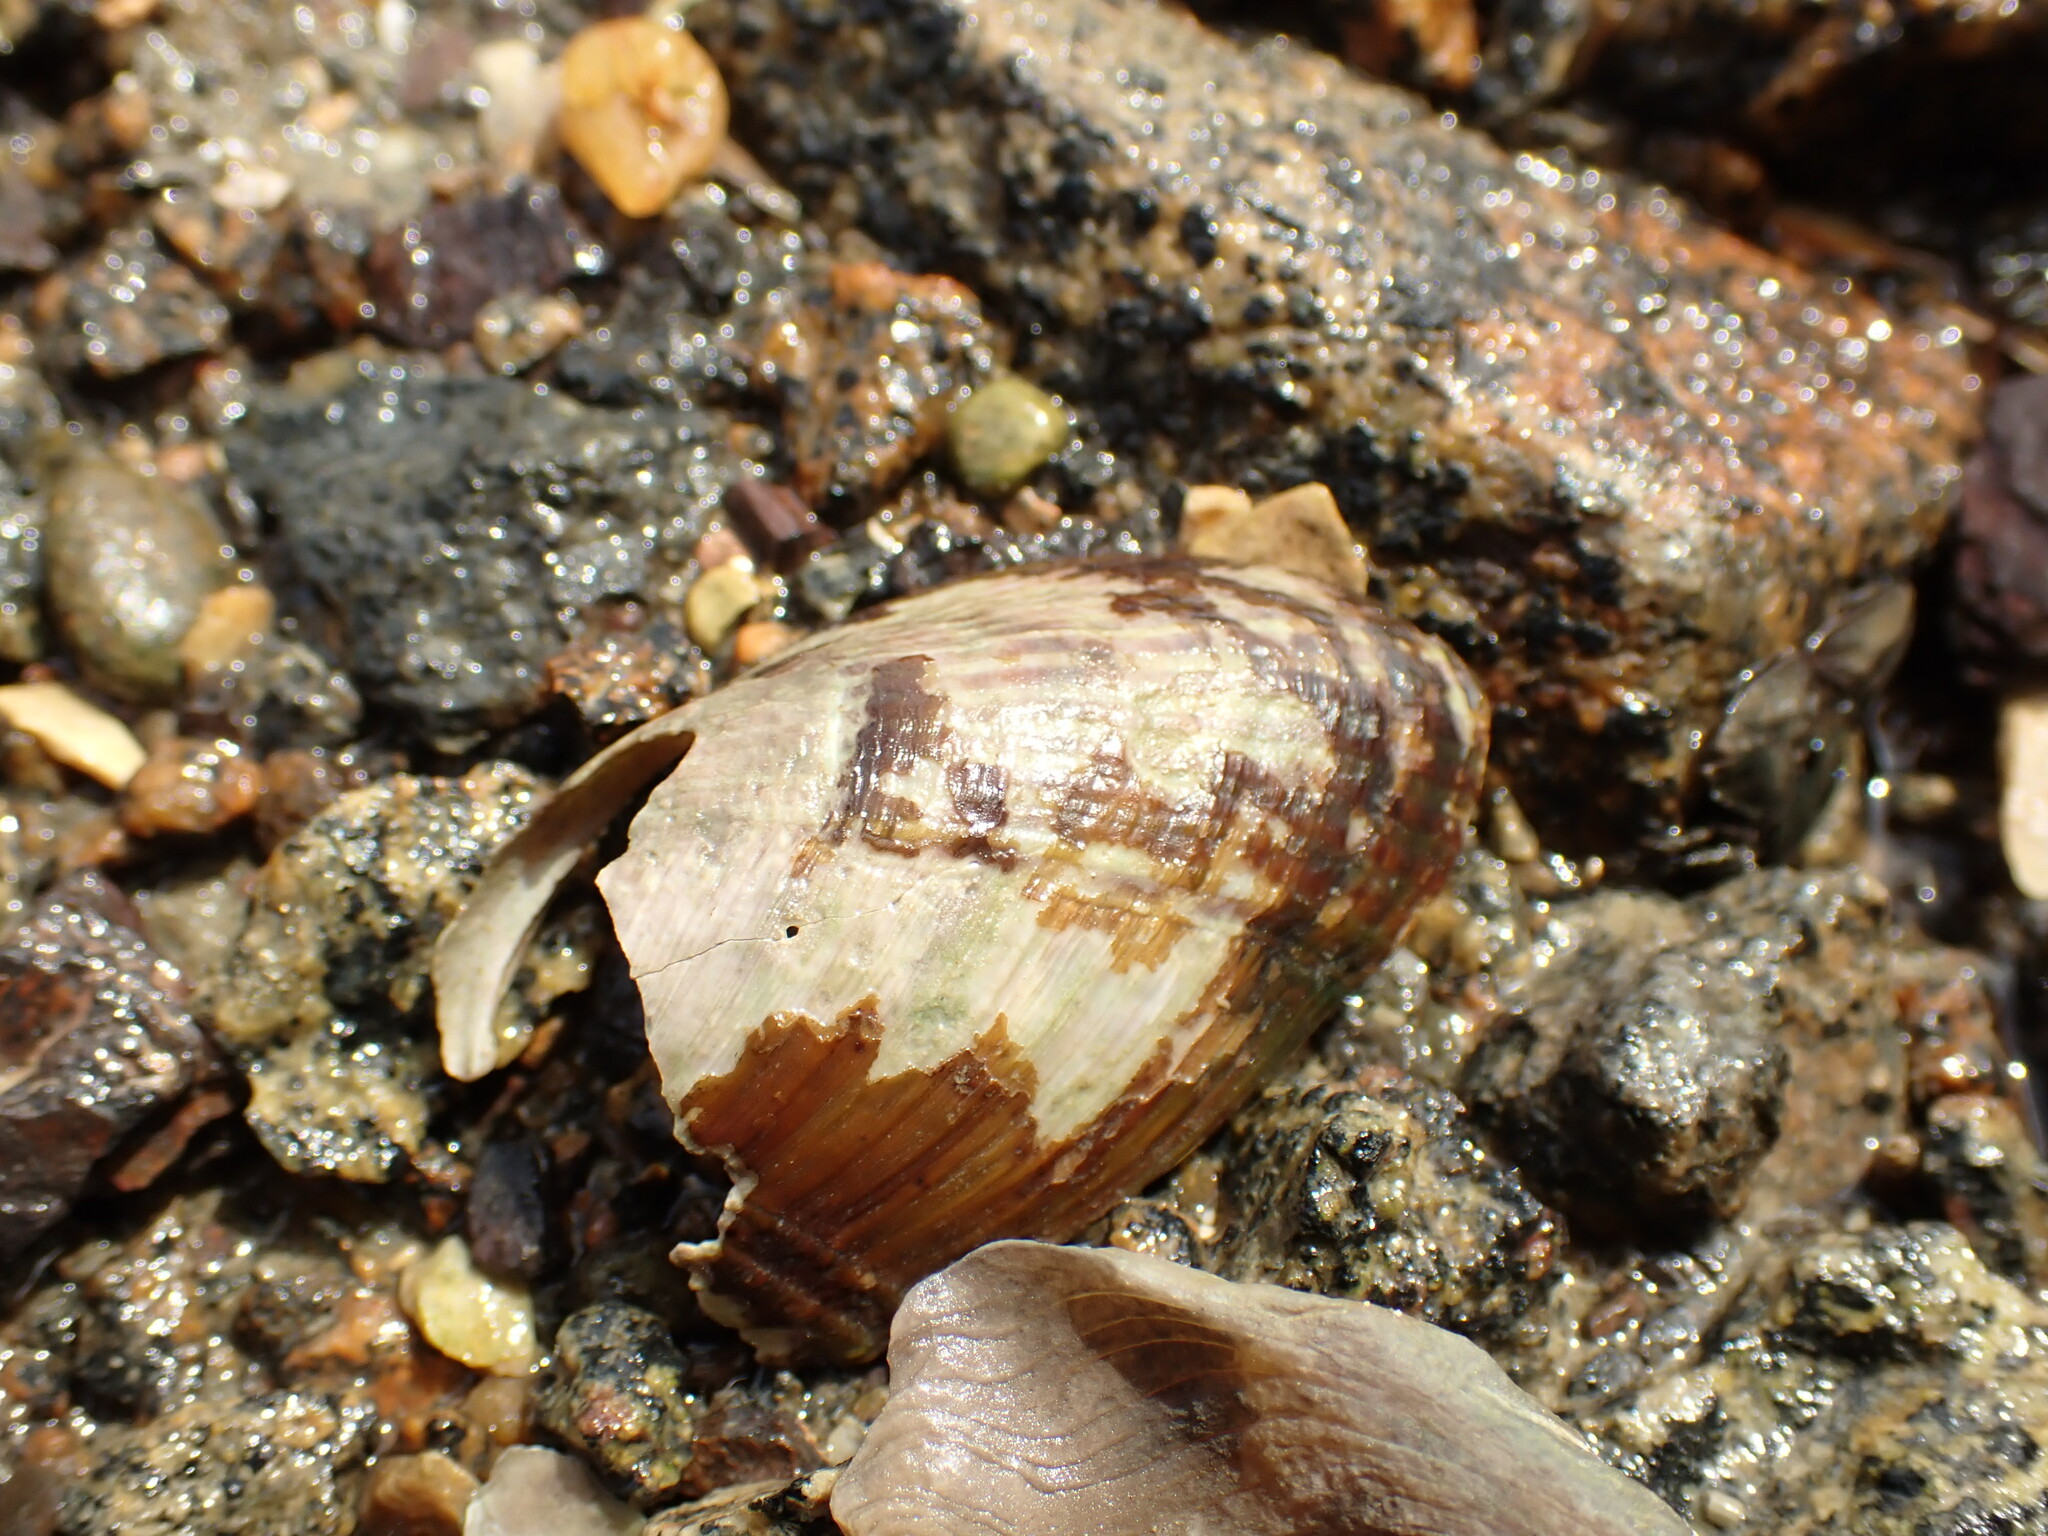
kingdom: Animalia
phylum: Mollusca
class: Bivalvia
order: Mytilida
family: Mytilidae
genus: Musculus
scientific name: Musculus impactus
